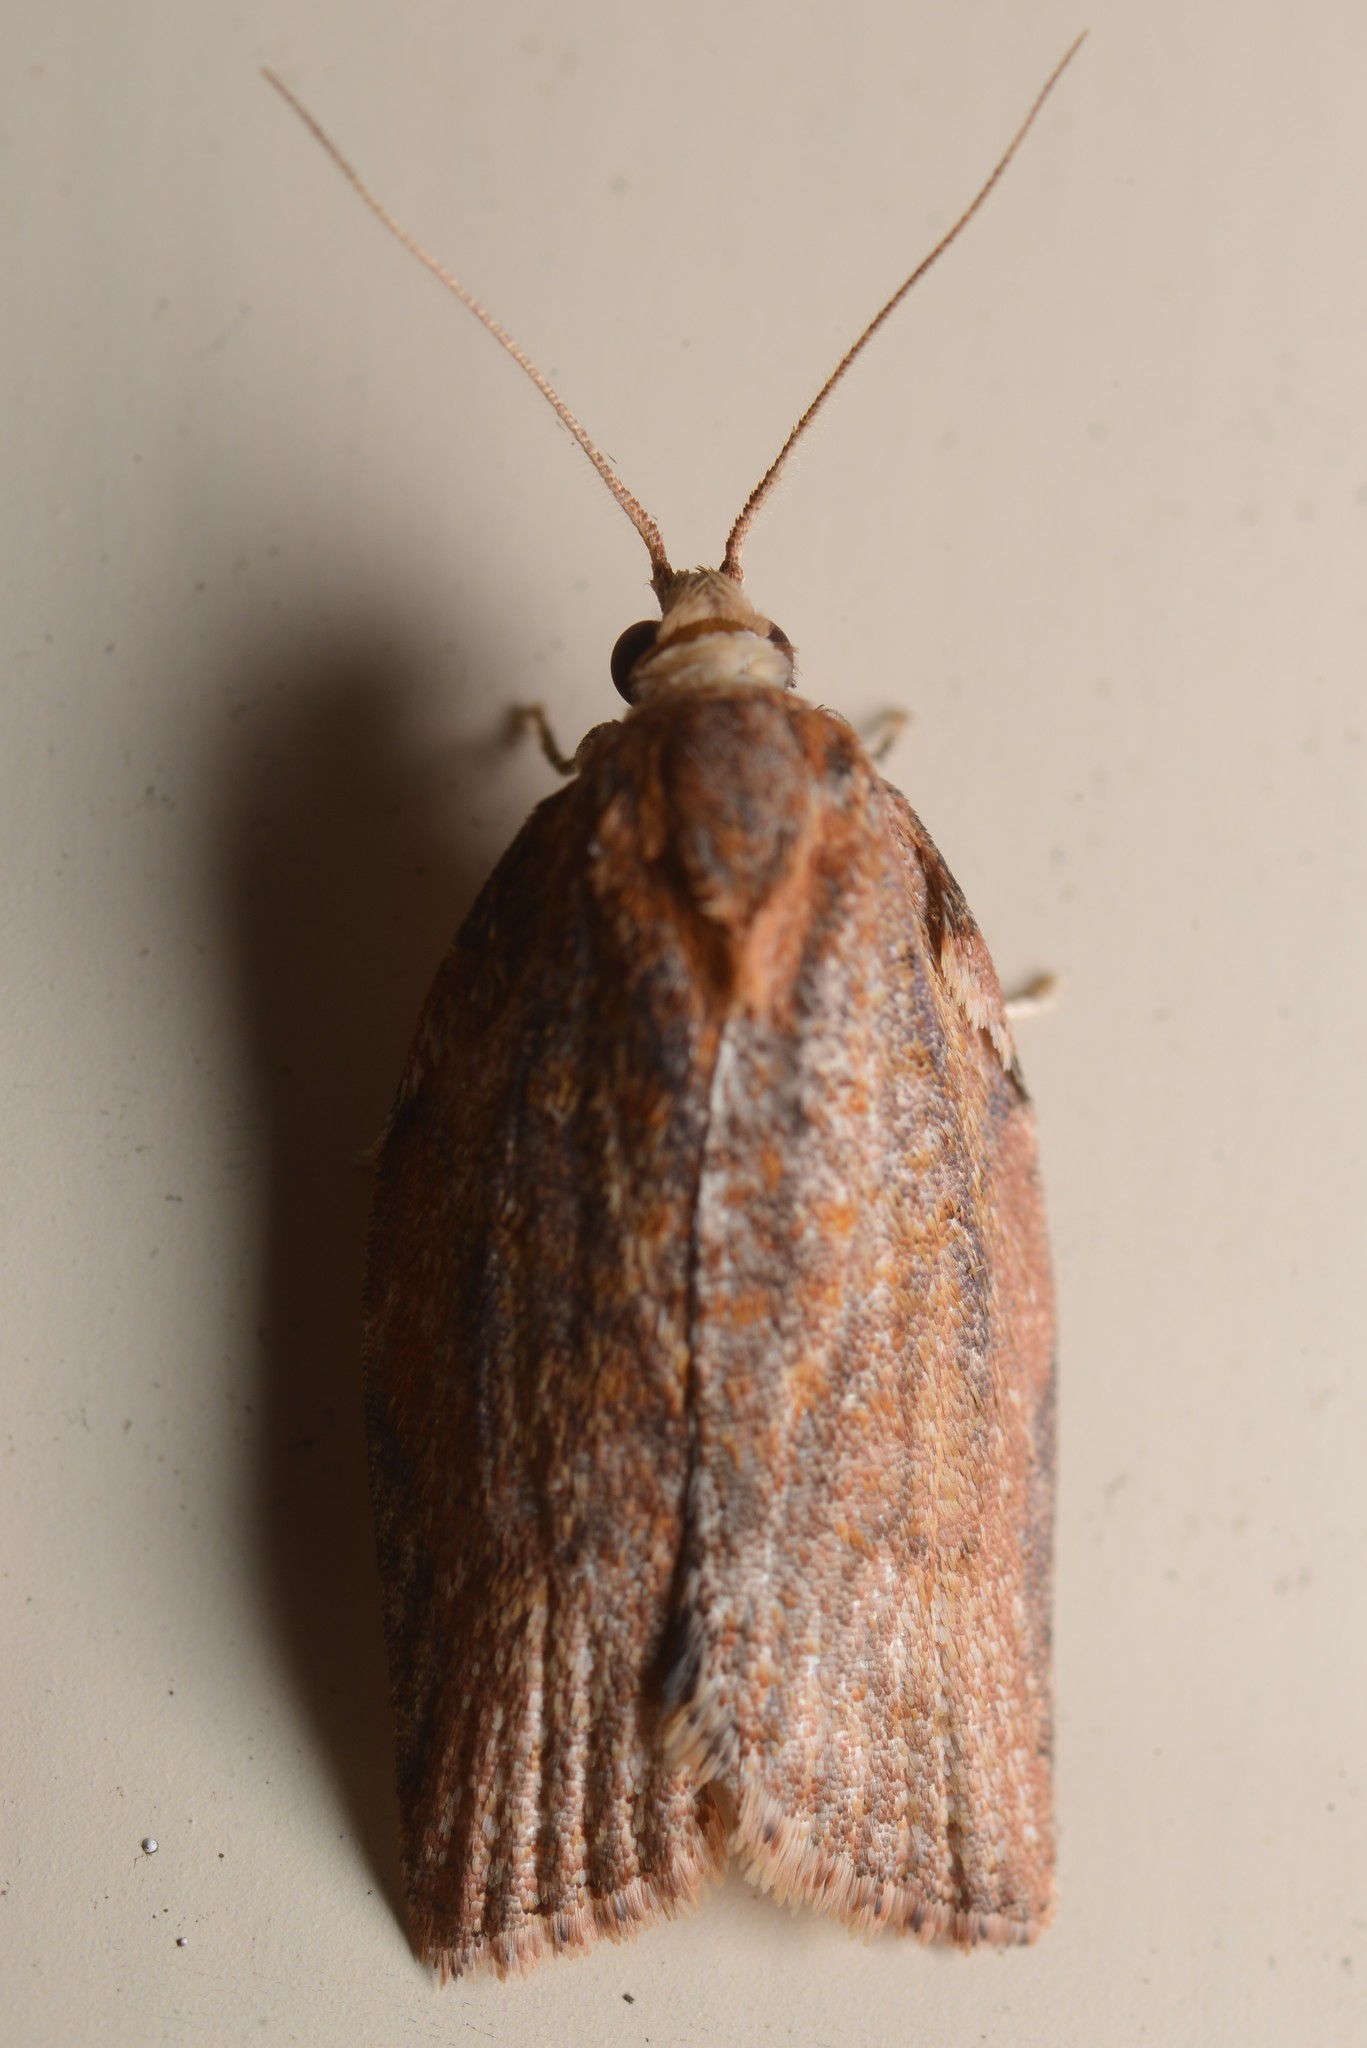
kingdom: Animalia
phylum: Arthropoda
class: Insecta
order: Lepidoptera
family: Tortricidae
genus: Epiphyas
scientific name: Epiphyas postvittana
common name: Light brown apple moth
